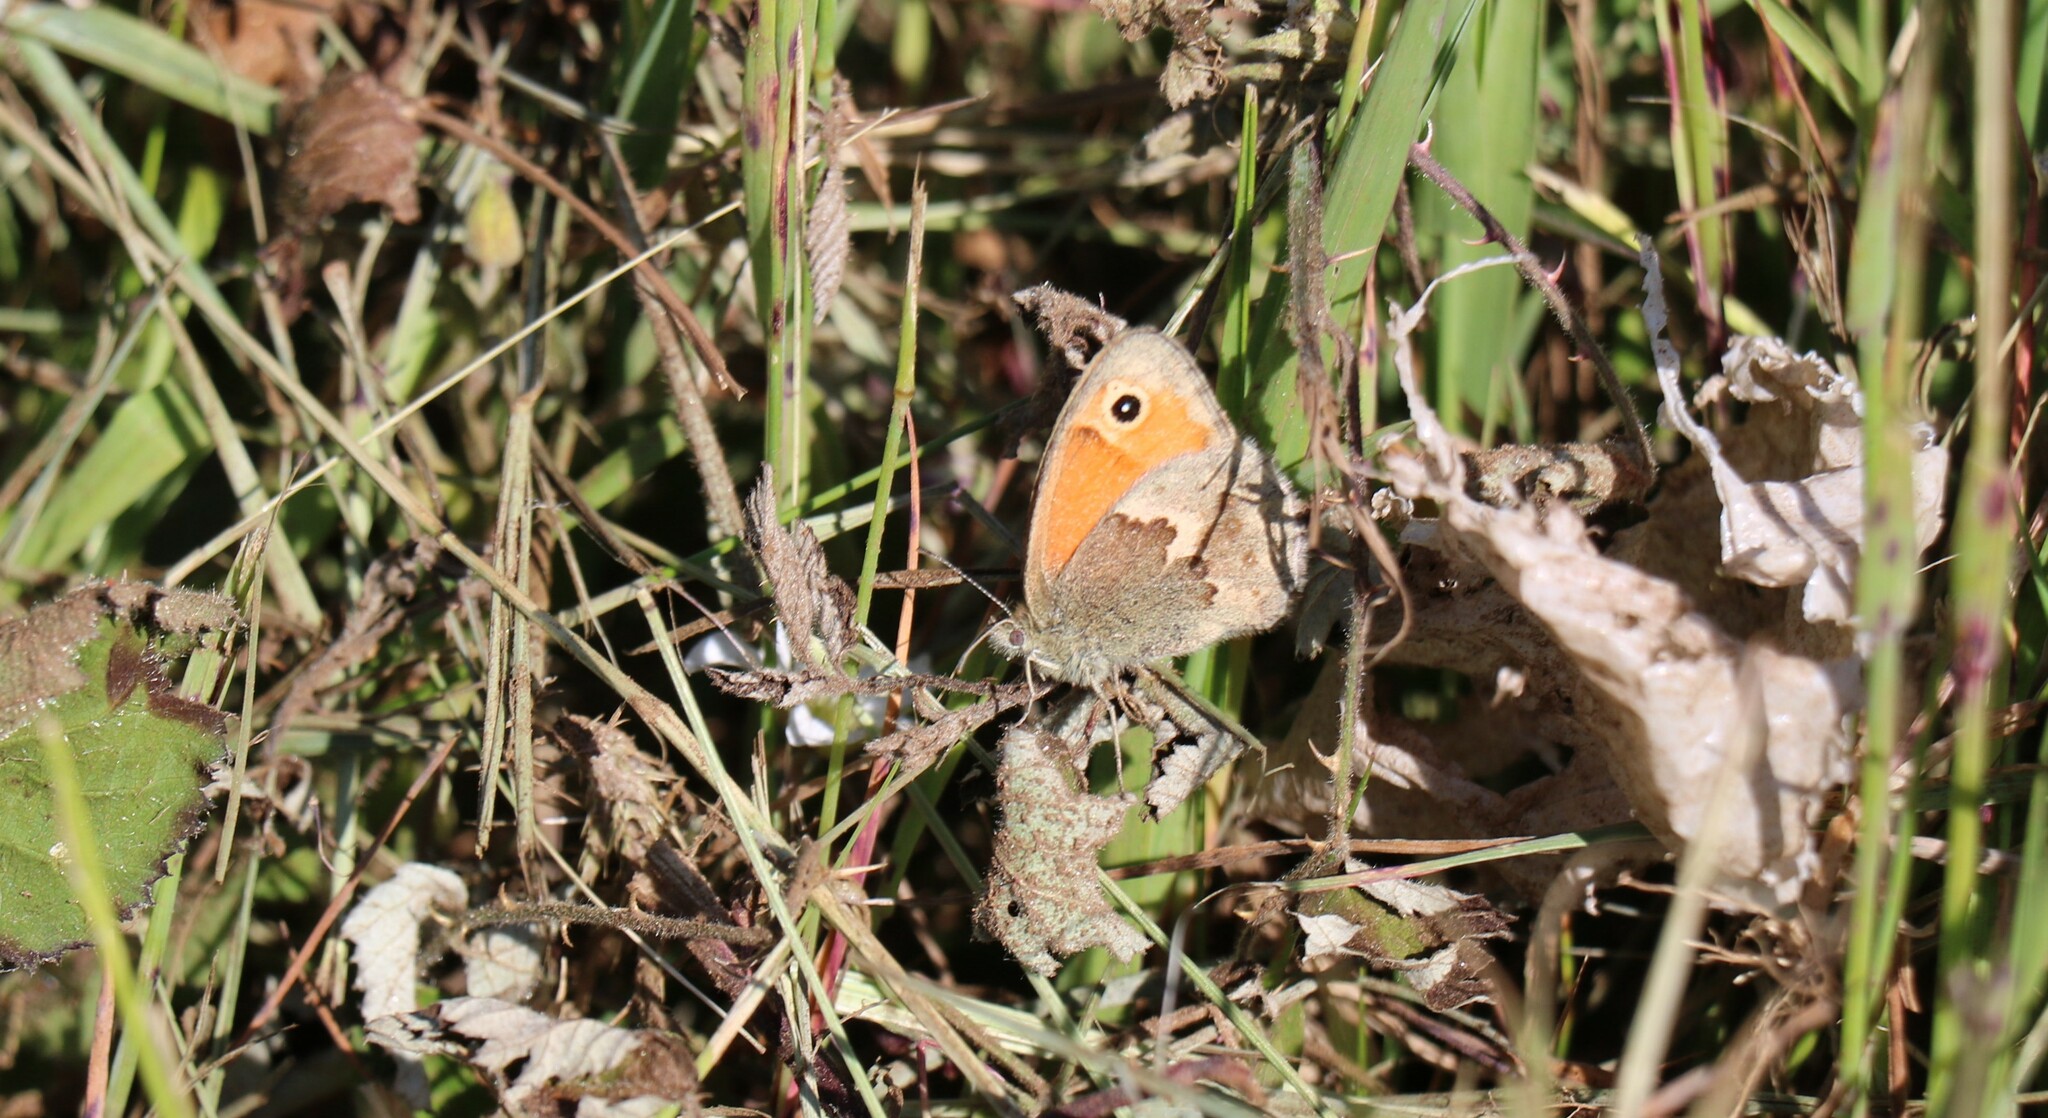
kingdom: Animalia
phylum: Arthropoda
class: Insecta
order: Lepidoptera
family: Nymphalidae
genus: Coenonympha
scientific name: Coenonympha pamphilus
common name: Small heath
